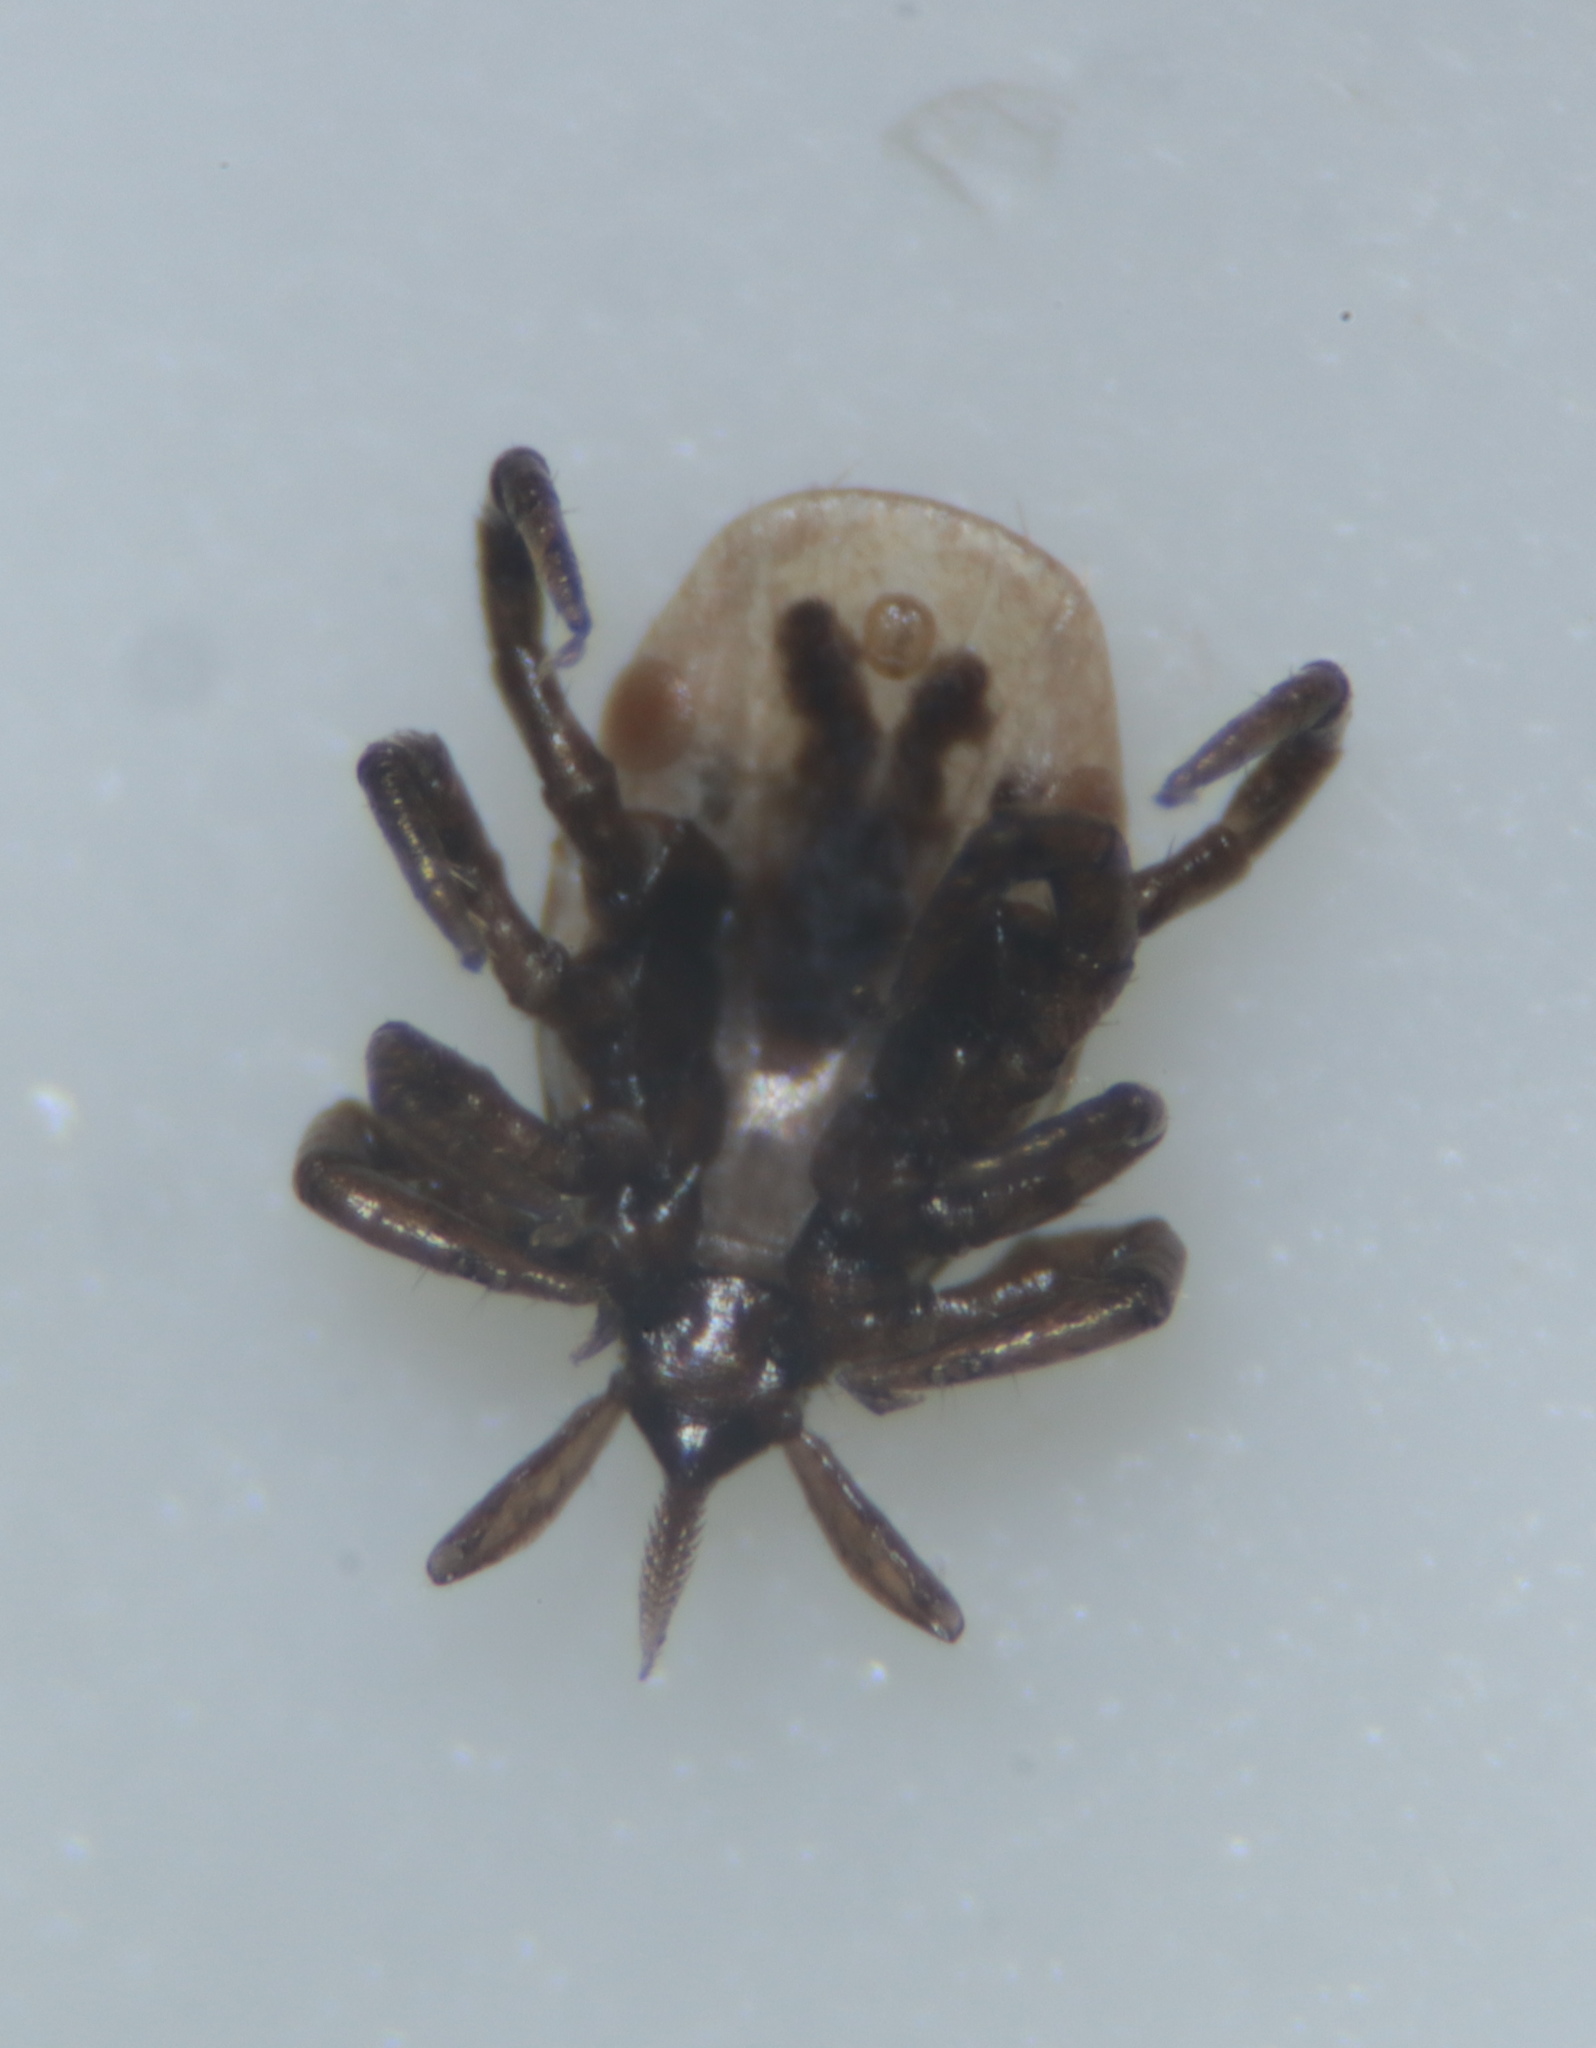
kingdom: Animalia
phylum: Arthropoda
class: Arachnida
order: Ixodida
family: Ixodidae
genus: Ixodes
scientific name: Ixodes scapularis
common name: Black legged tick
